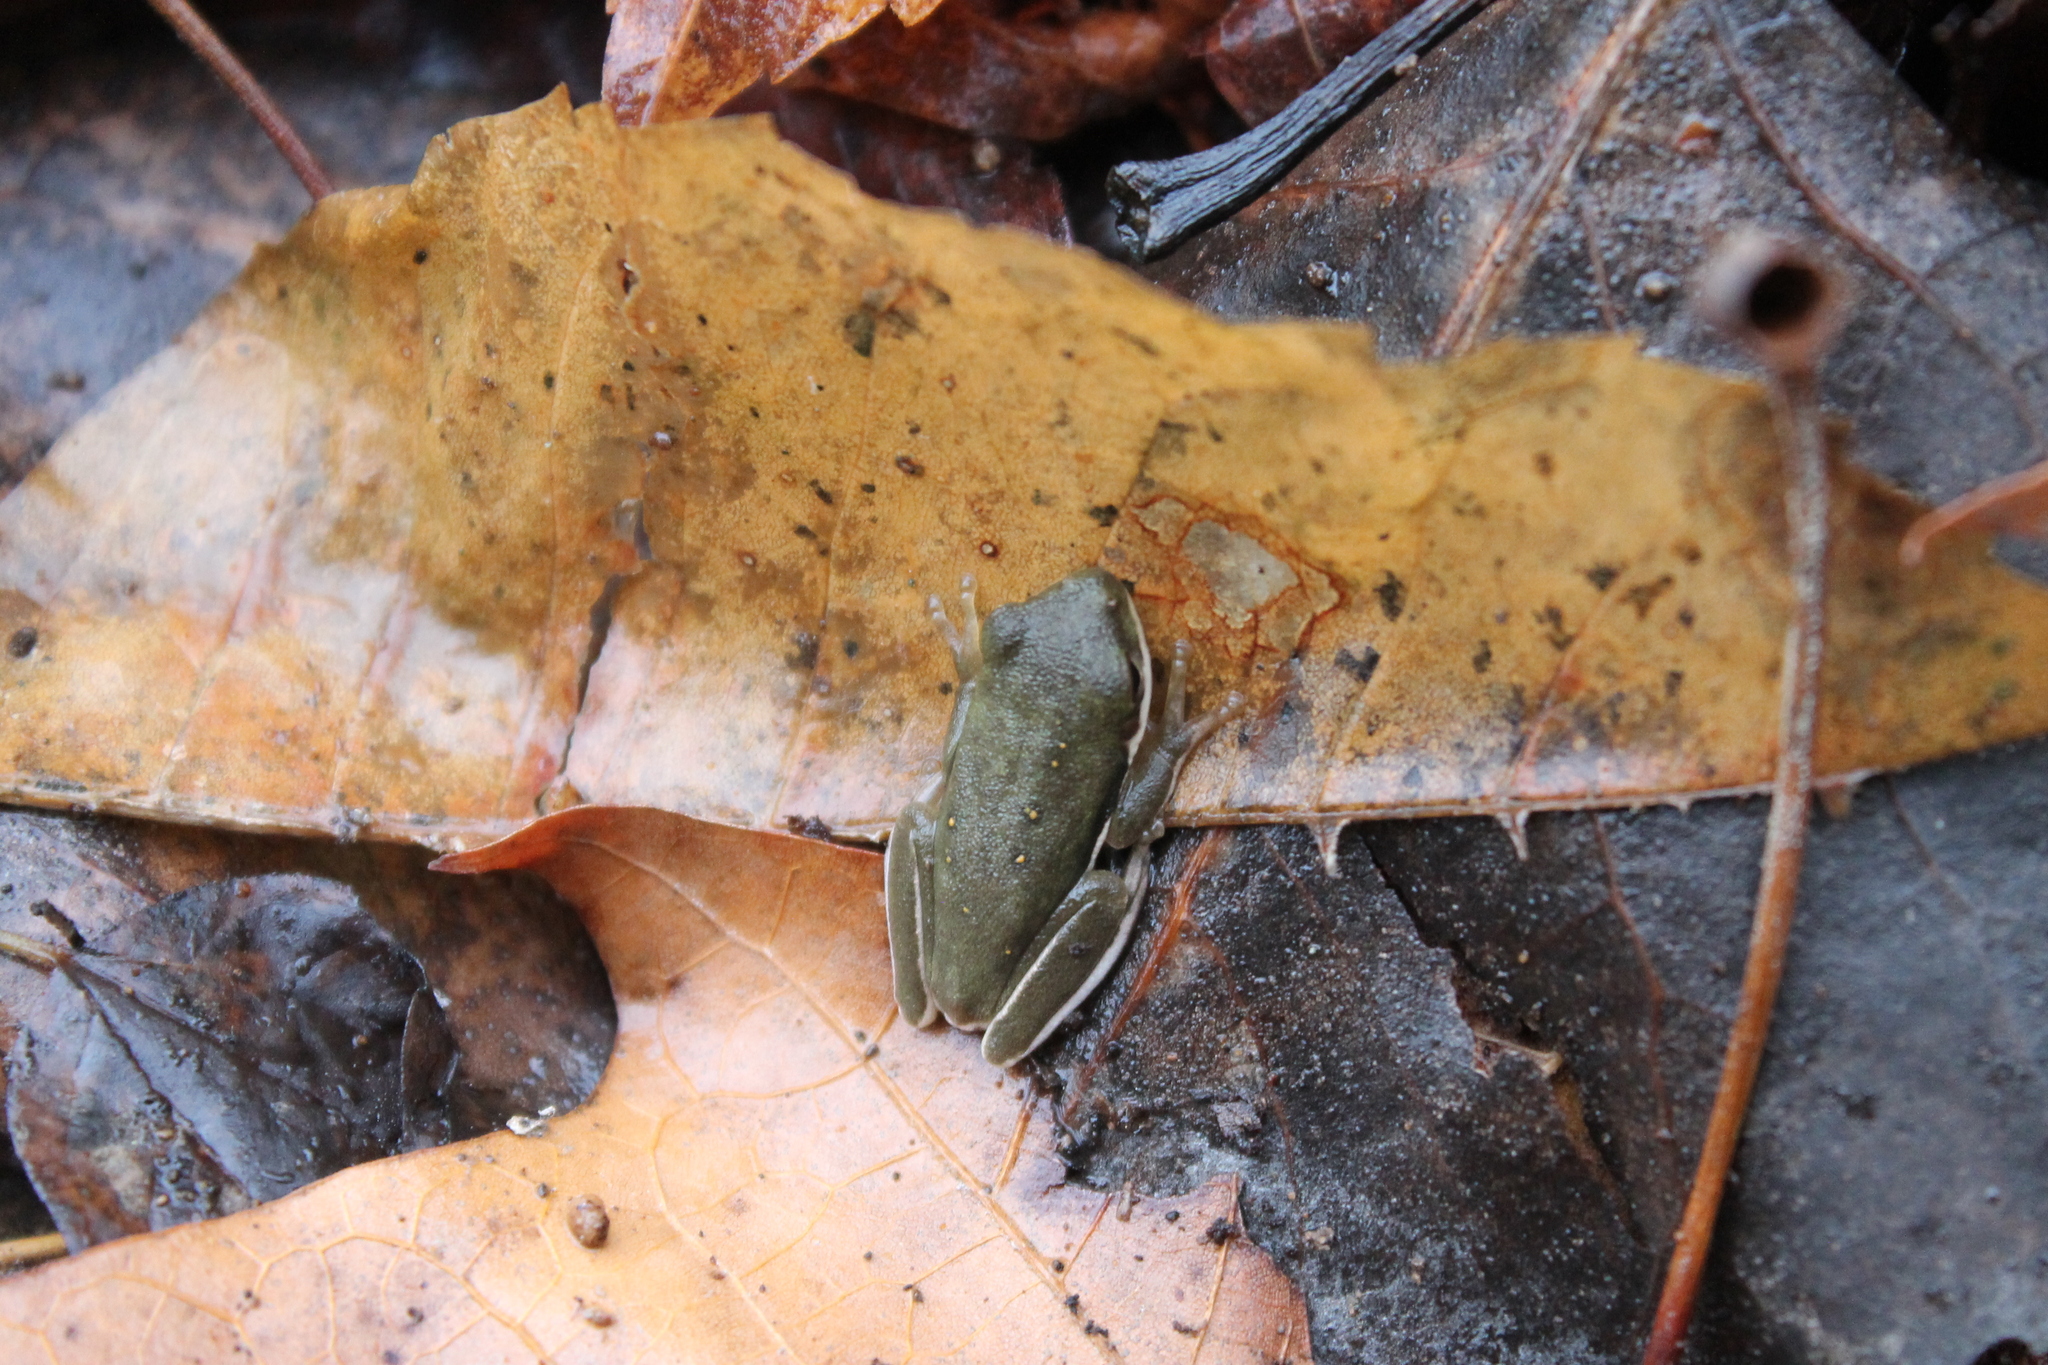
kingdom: Animalia
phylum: Chordata
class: Amphibia
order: Anura
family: Hylidae
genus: Dryophytes
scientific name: Dryophytes cinereus
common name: Green treefrog
